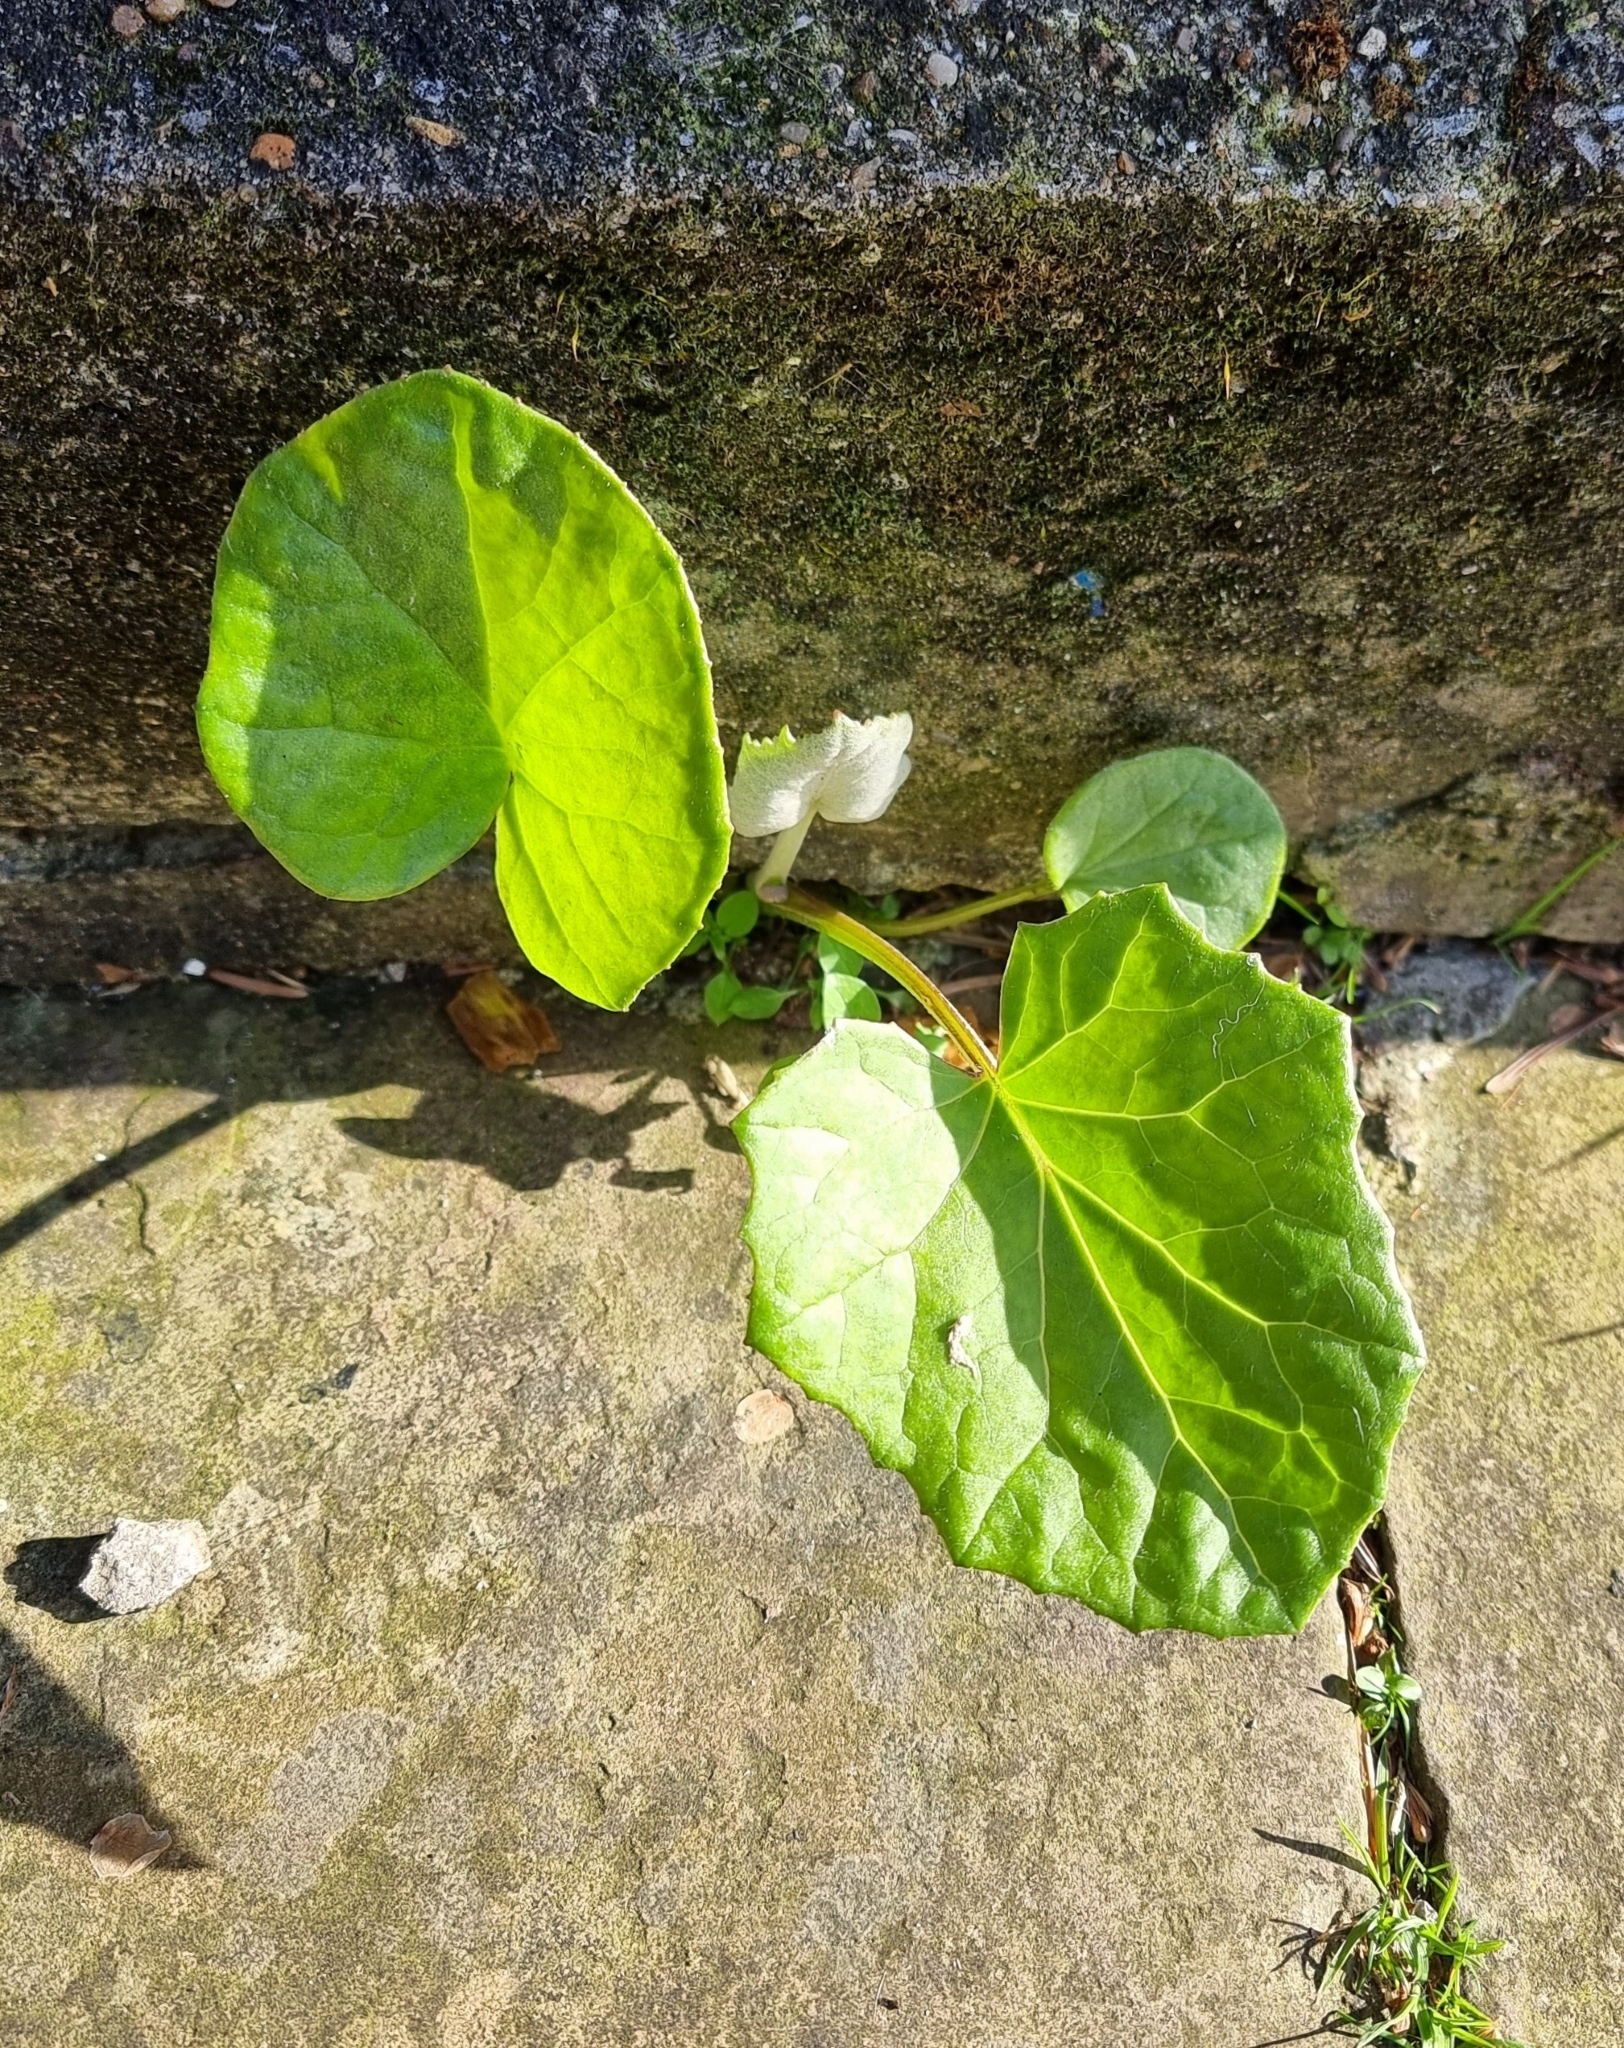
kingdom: Plantae
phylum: Tracheophyta
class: Magnoliopsida
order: Asterales
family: Asteraceae
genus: Tussilago
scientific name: Tussilago farfara
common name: Coltsfoot
